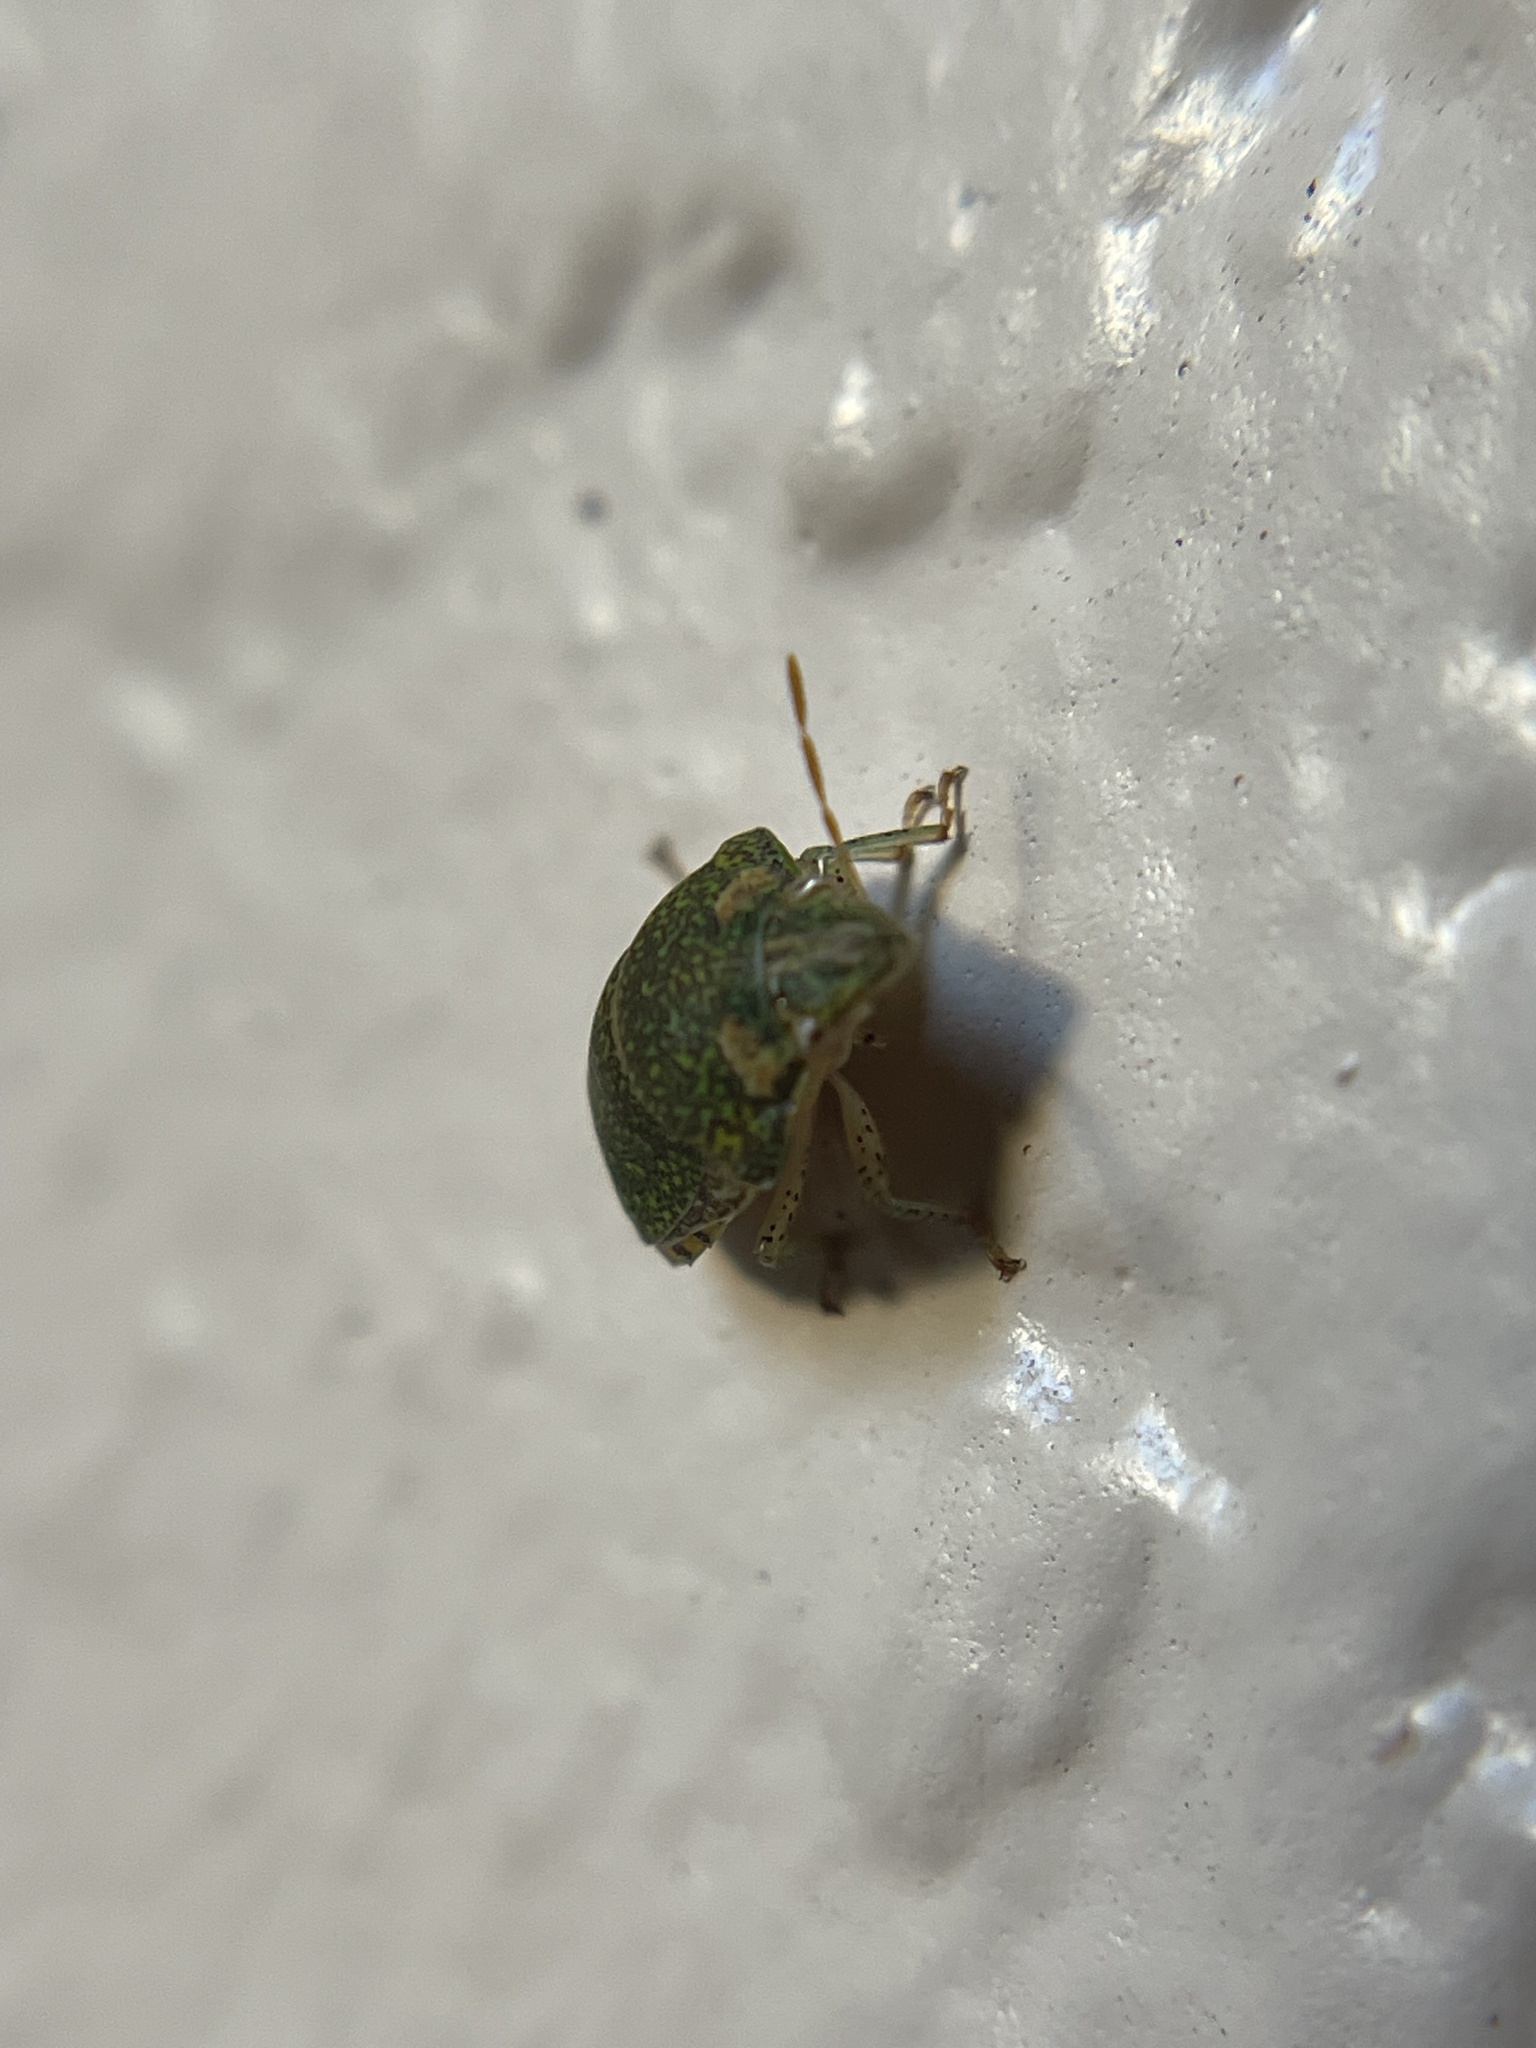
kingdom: Animalia
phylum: Arthropoda
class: Insecta
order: Hemiptera
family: Scutelleridae
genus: Diolcus
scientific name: Diolcus irroratus
